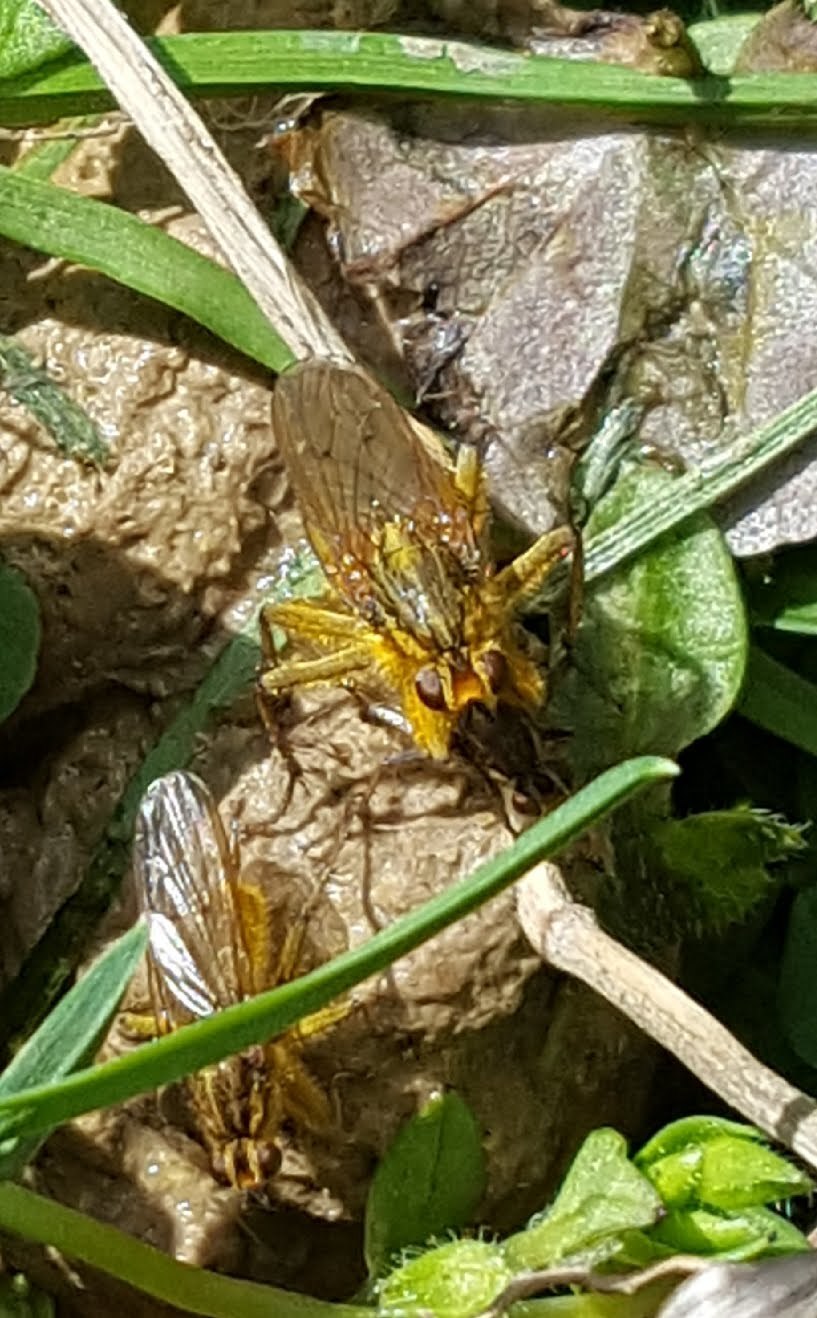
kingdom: Animalia
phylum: Arthropoda
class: Insecta
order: Diptera
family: Scathophagidae
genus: Scathophaga
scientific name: Scathophaga stercoraria
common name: Yellow dung fly
